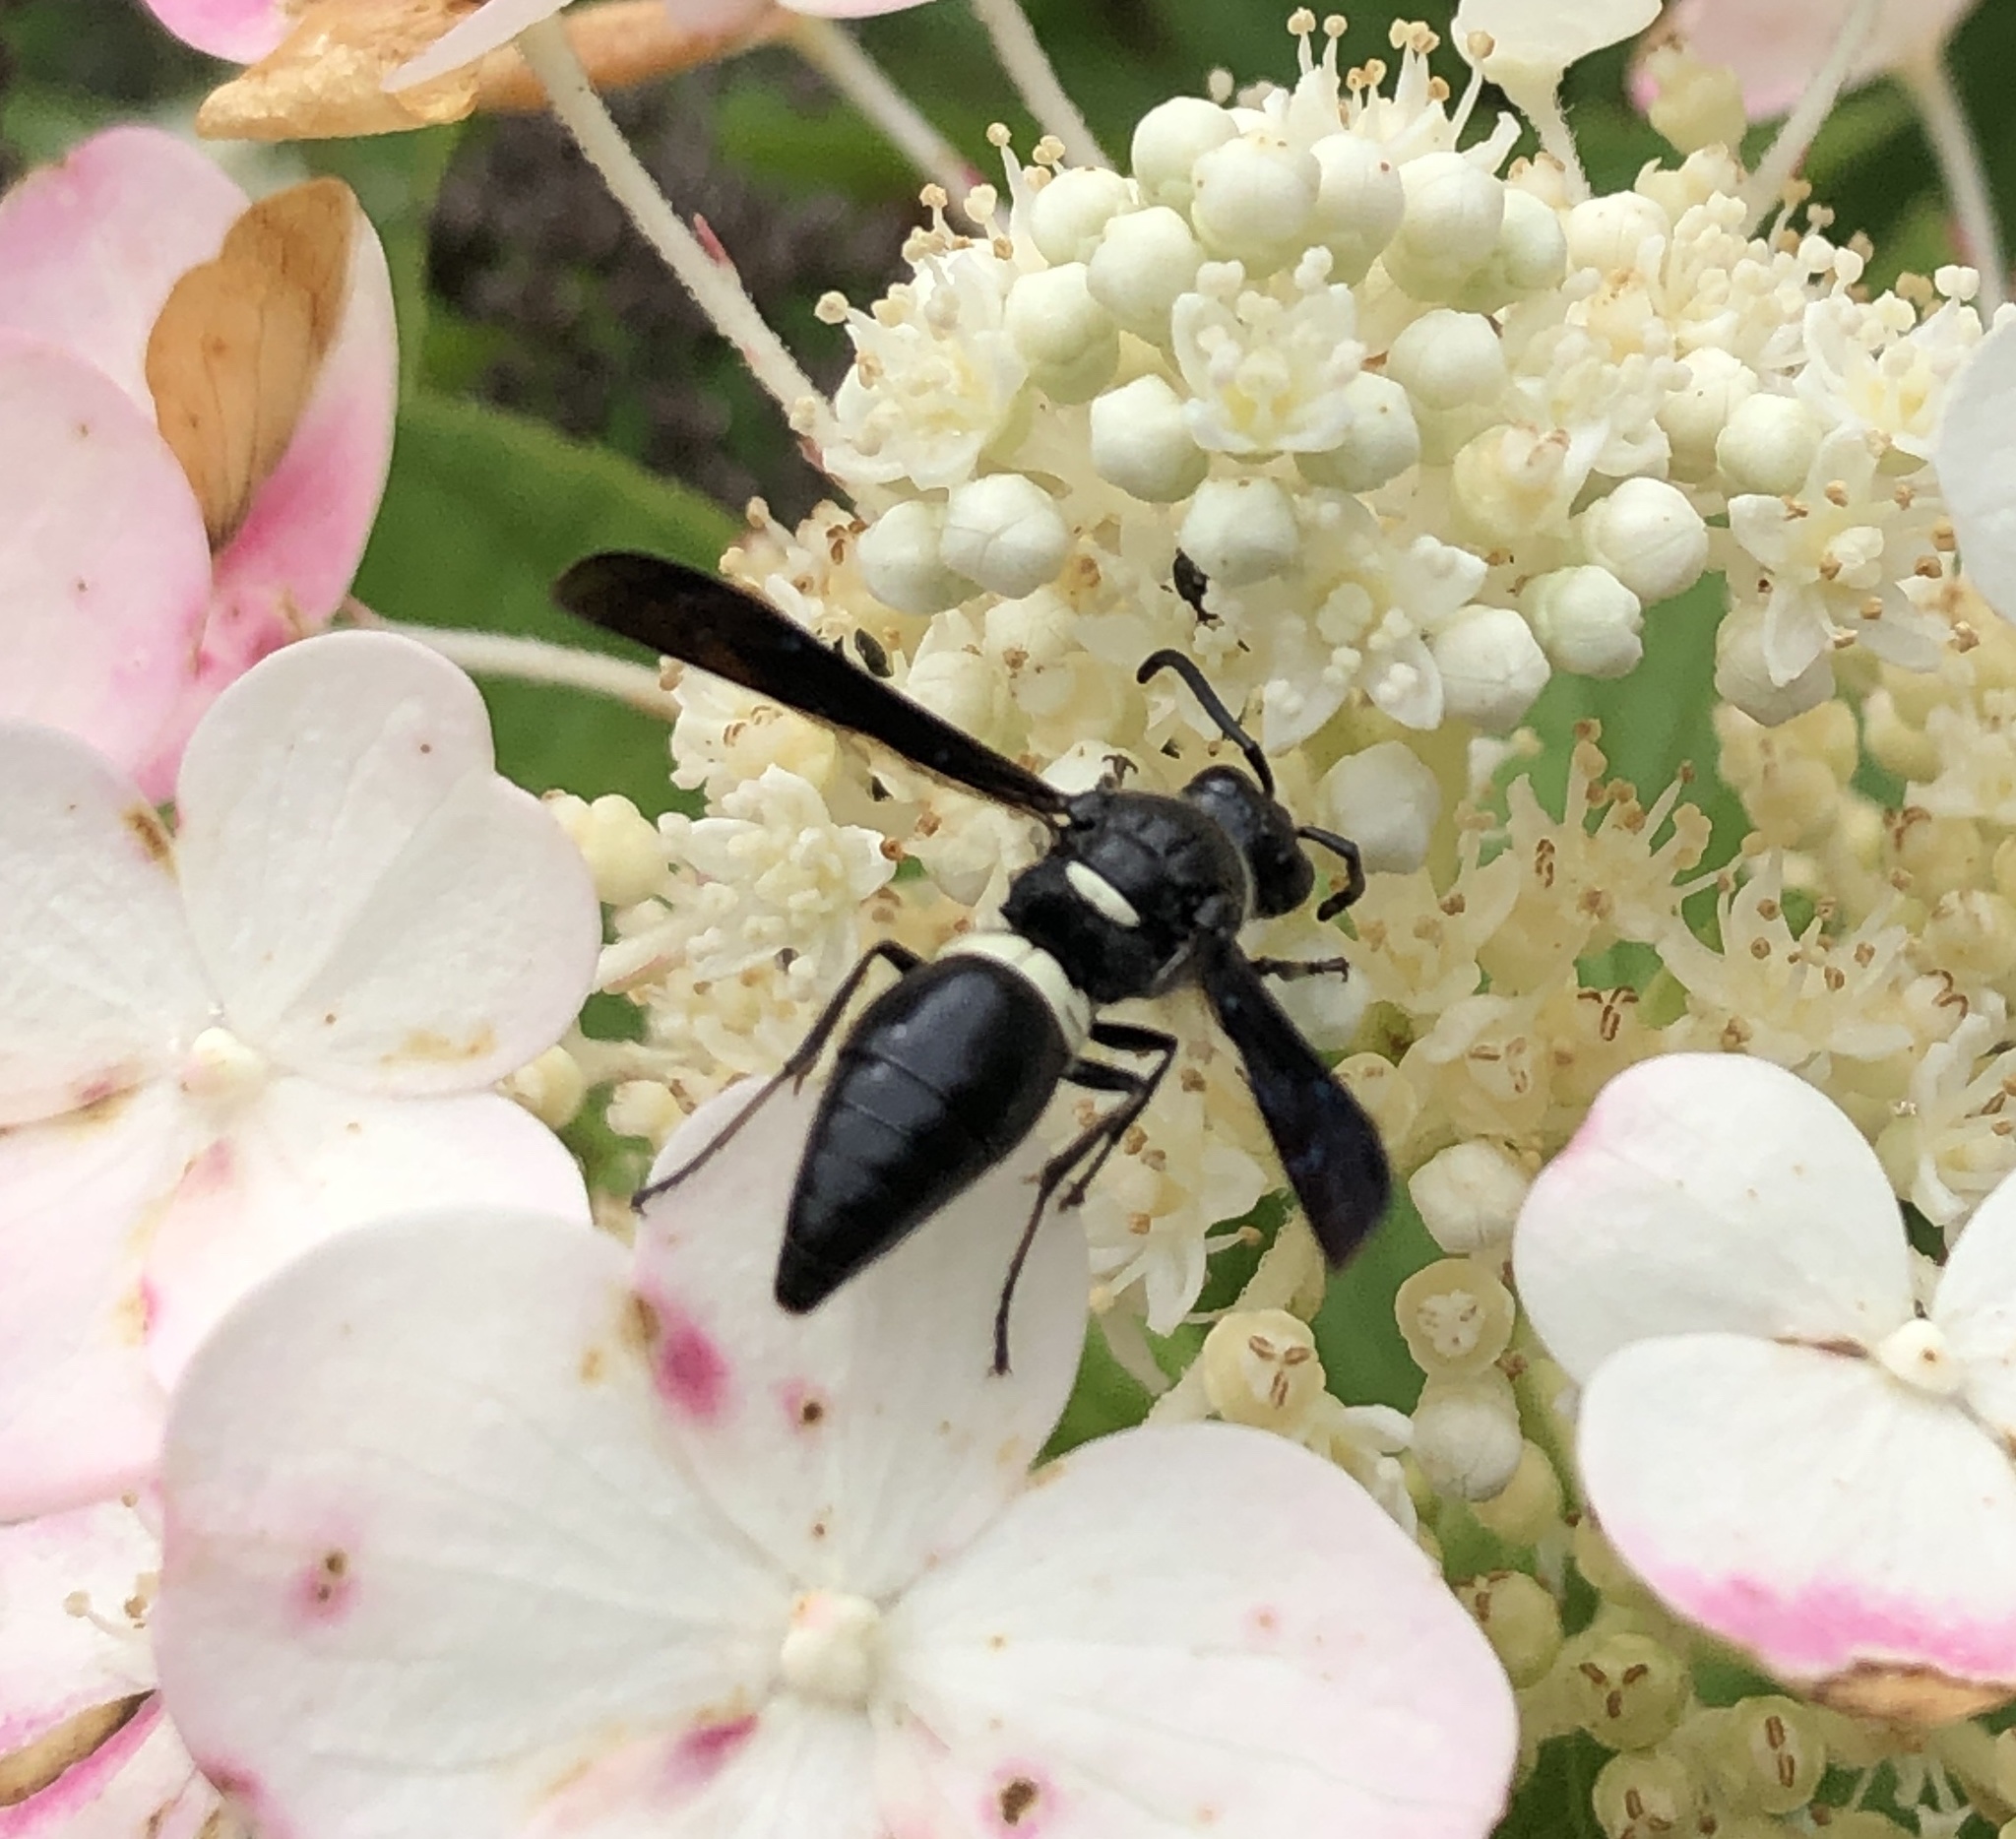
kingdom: Animalia
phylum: Arthropoda
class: Insecta
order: Hymenoptera
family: Eumenidae
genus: Monobia
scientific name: Monobia quadridens
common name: Four-toothed mason wasp
